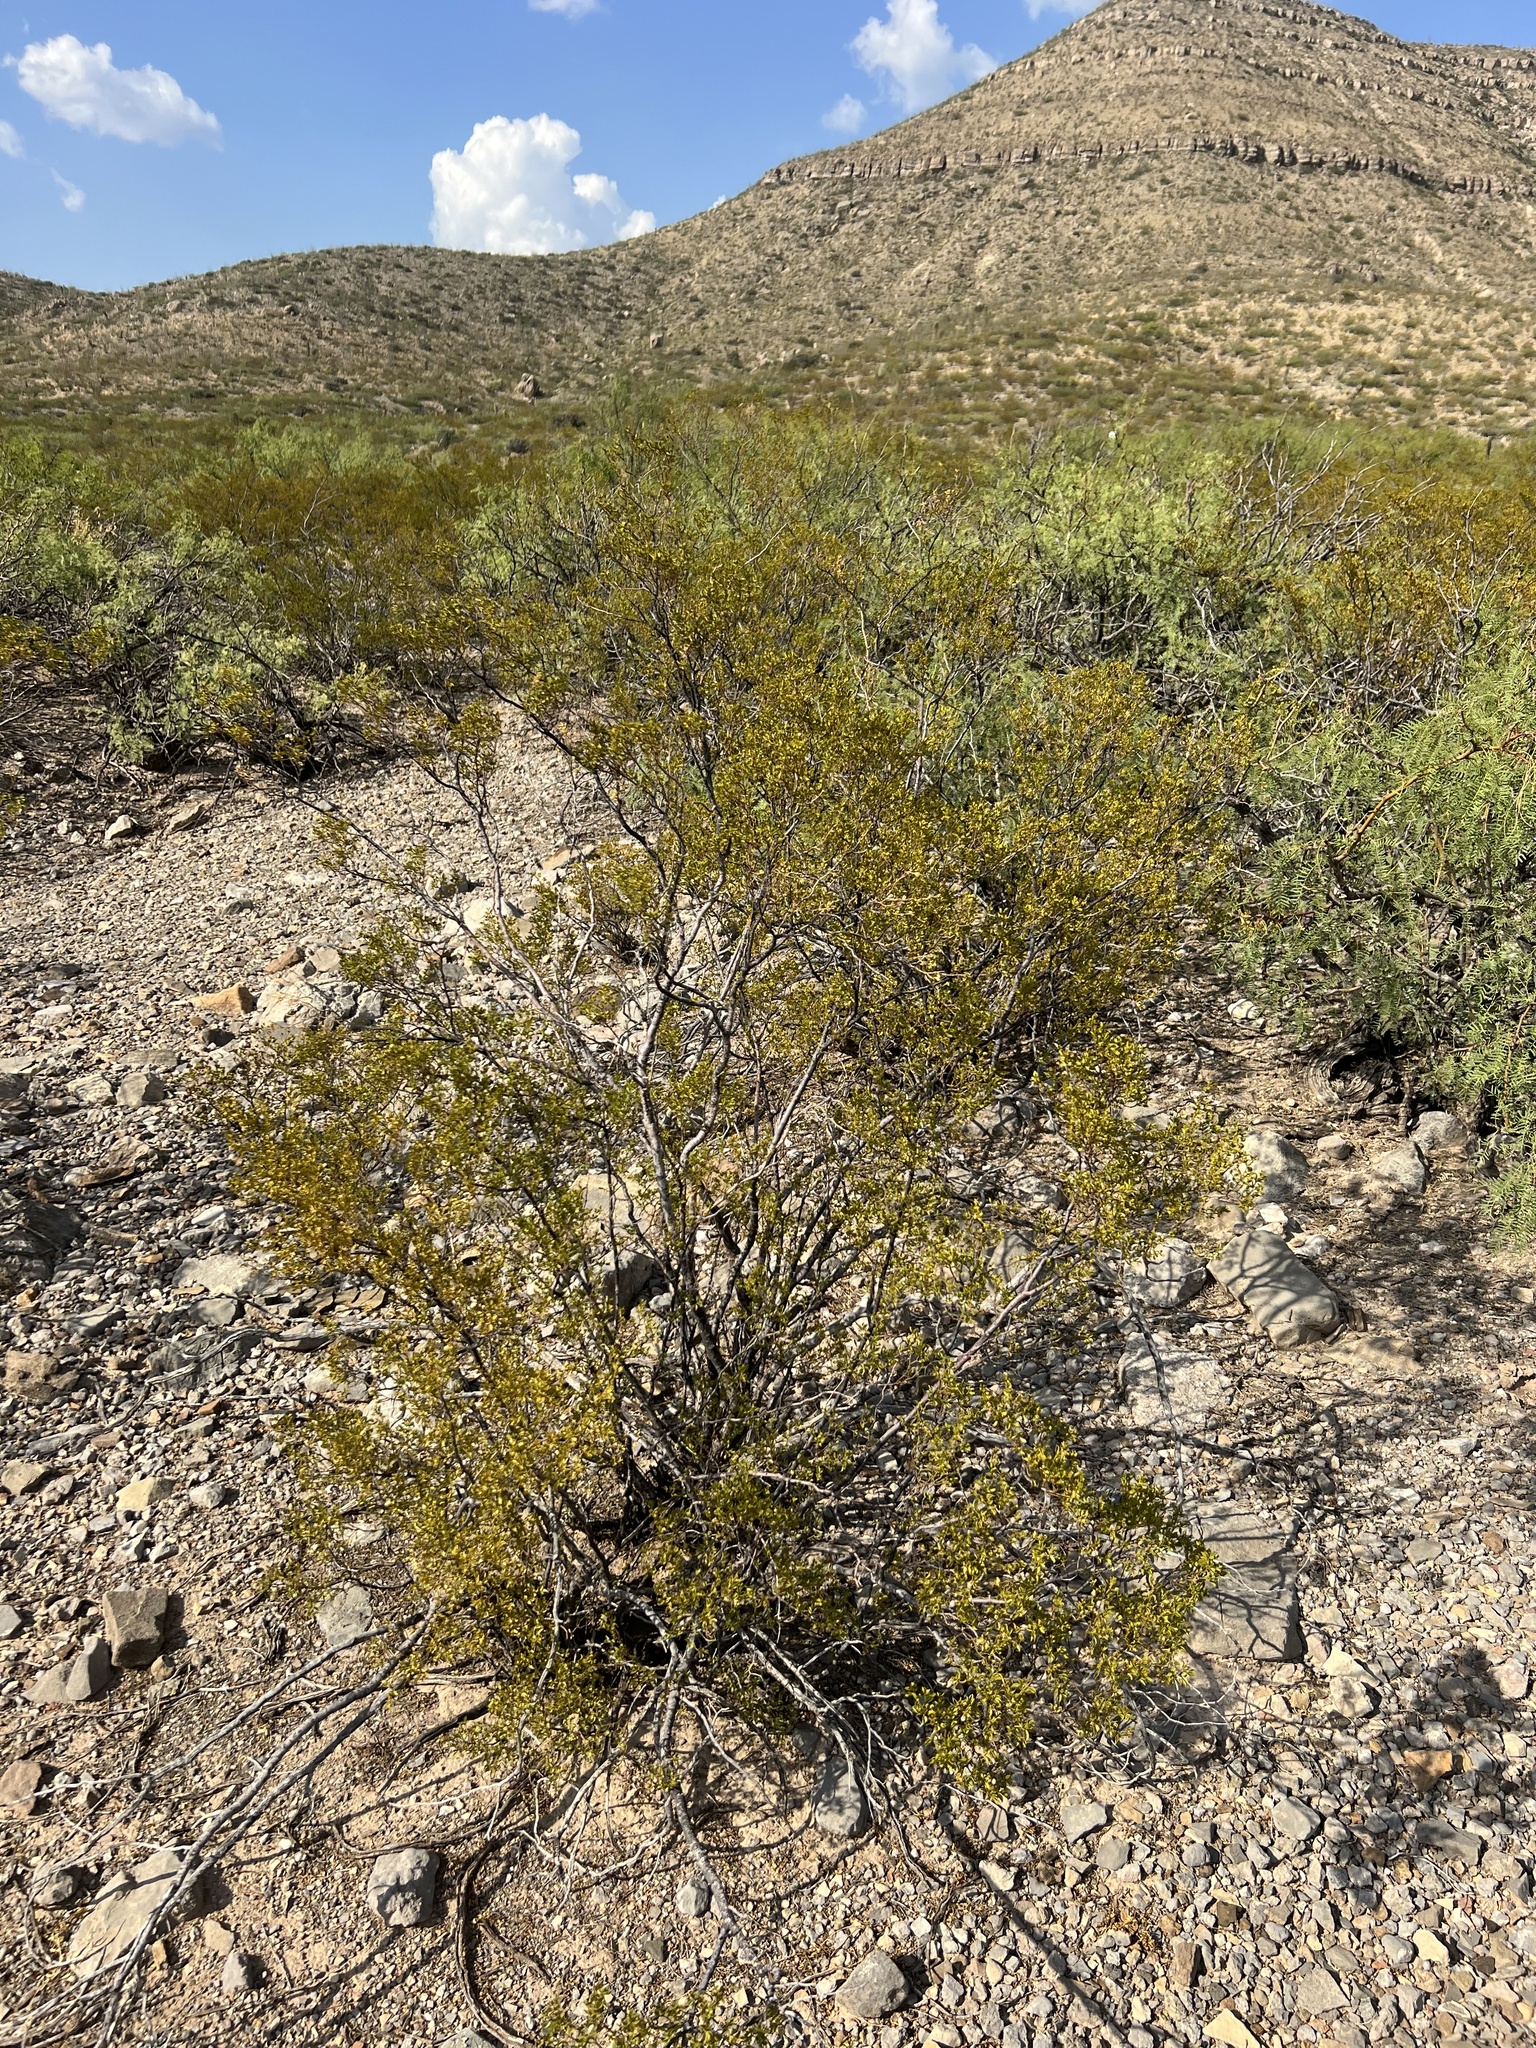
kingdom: Plantae
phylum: Tracheophyta
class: Magnoliopsida
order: Zygophyllales
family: Zygophyllaceae
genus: Larrea
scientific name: Larrea tridentata
